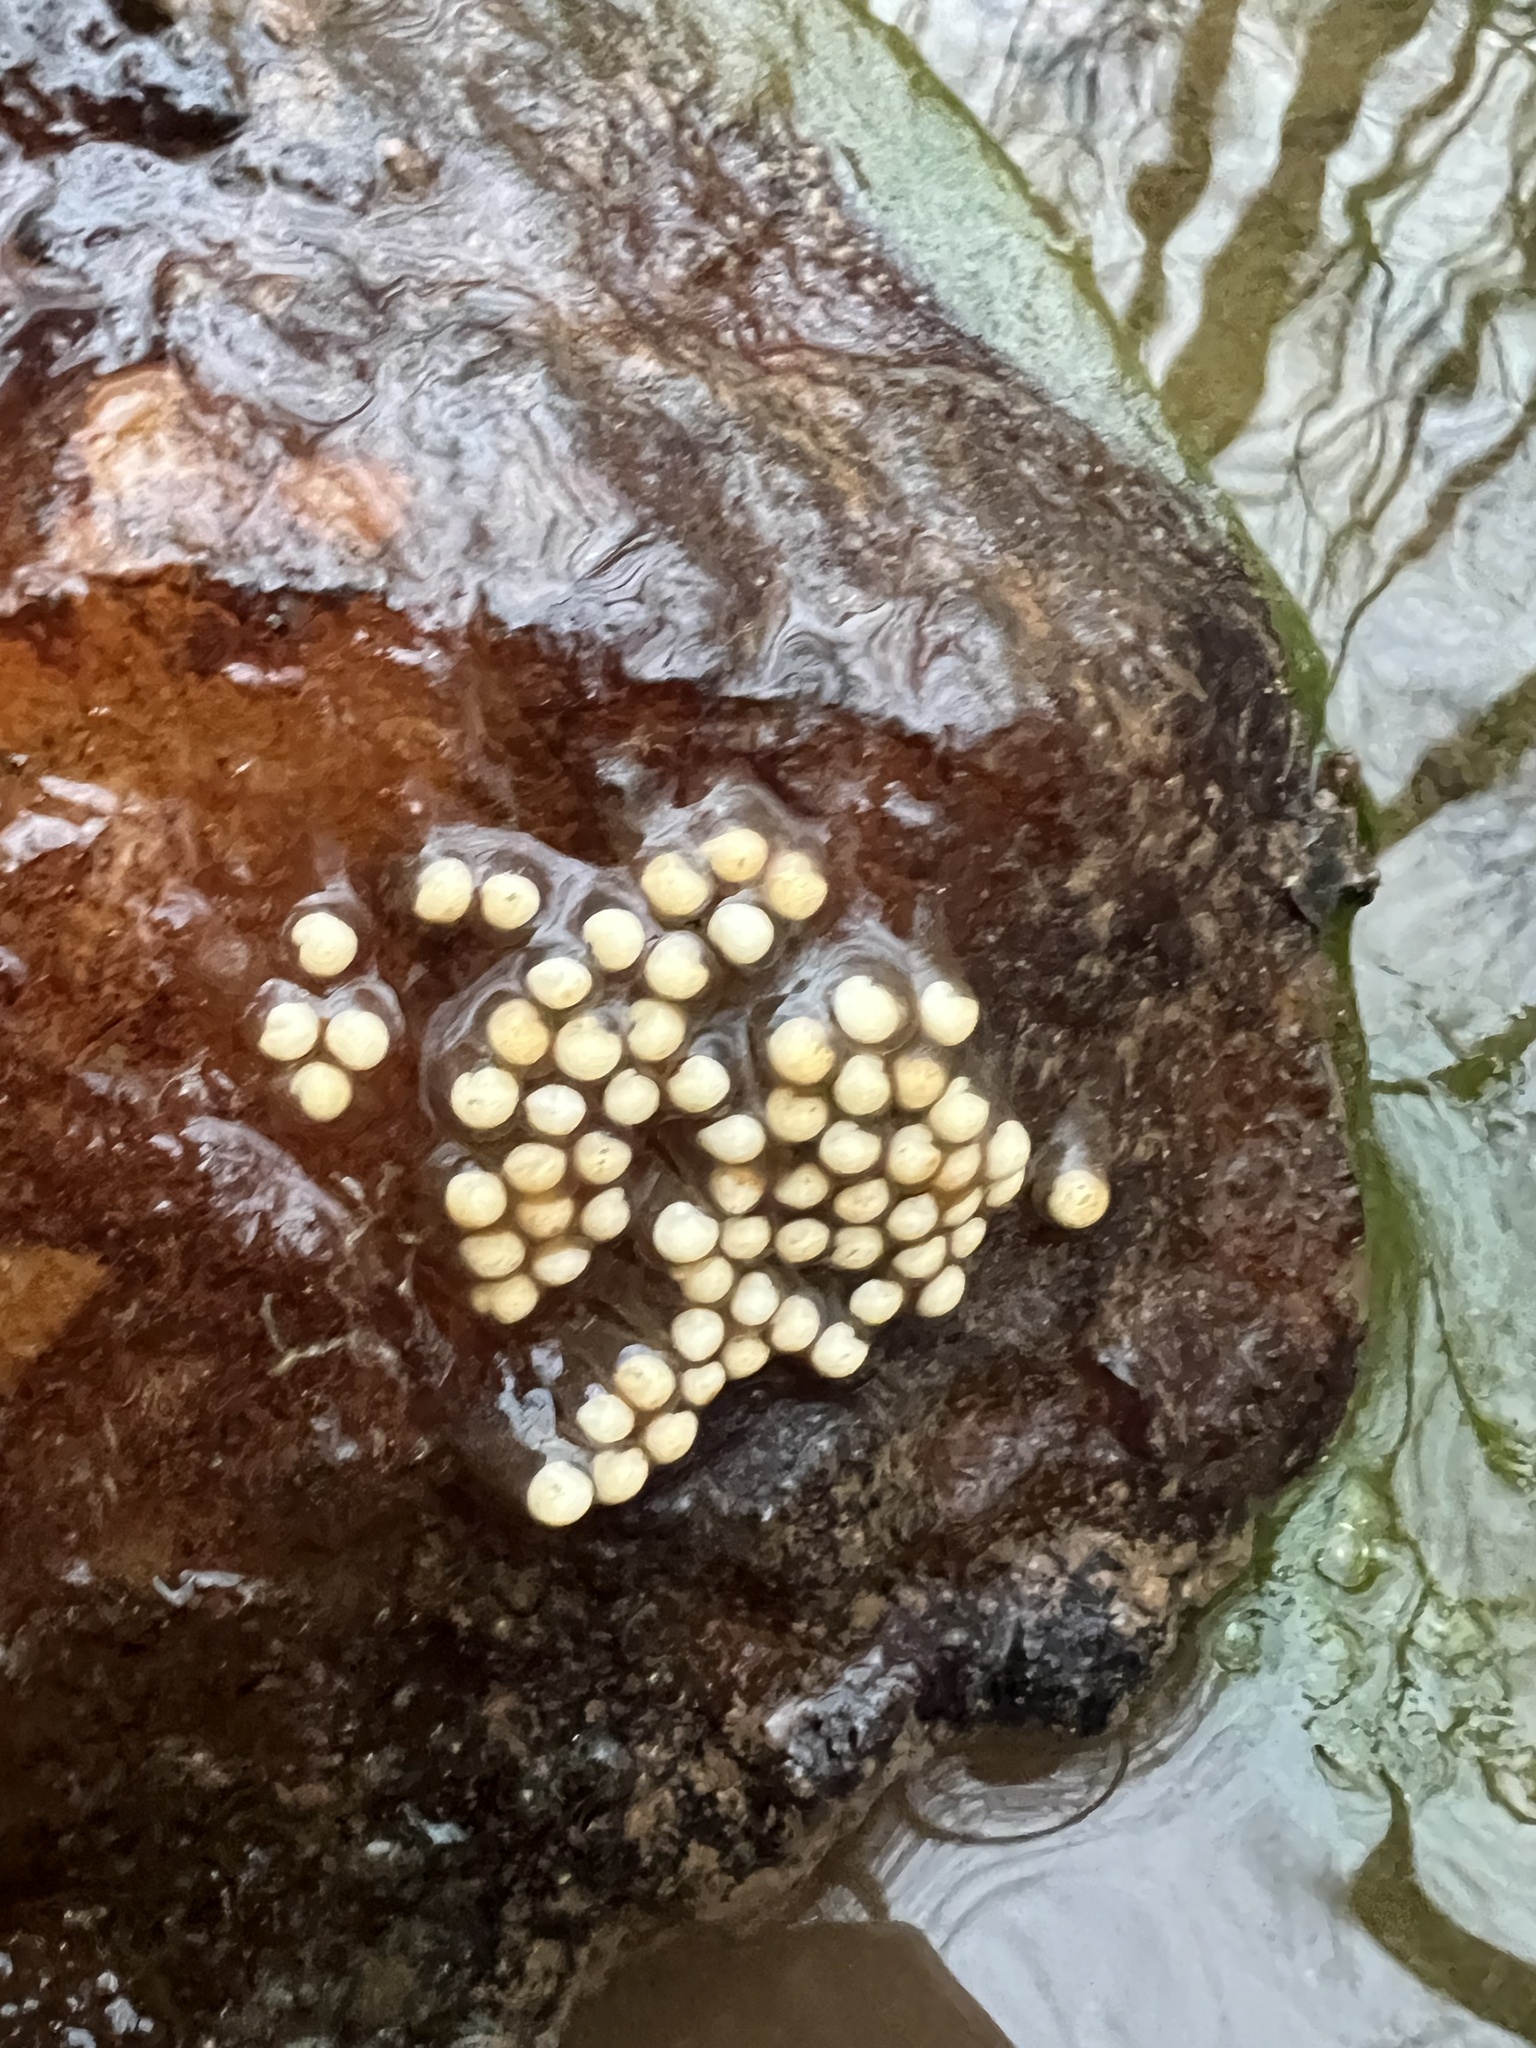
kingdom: Animalia
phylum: Chordata
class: Amphibia
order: Caudata
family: Plethodontidae
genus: Eurycea
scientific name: Eurycea cirrigera
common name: Southern two-lined salamander
